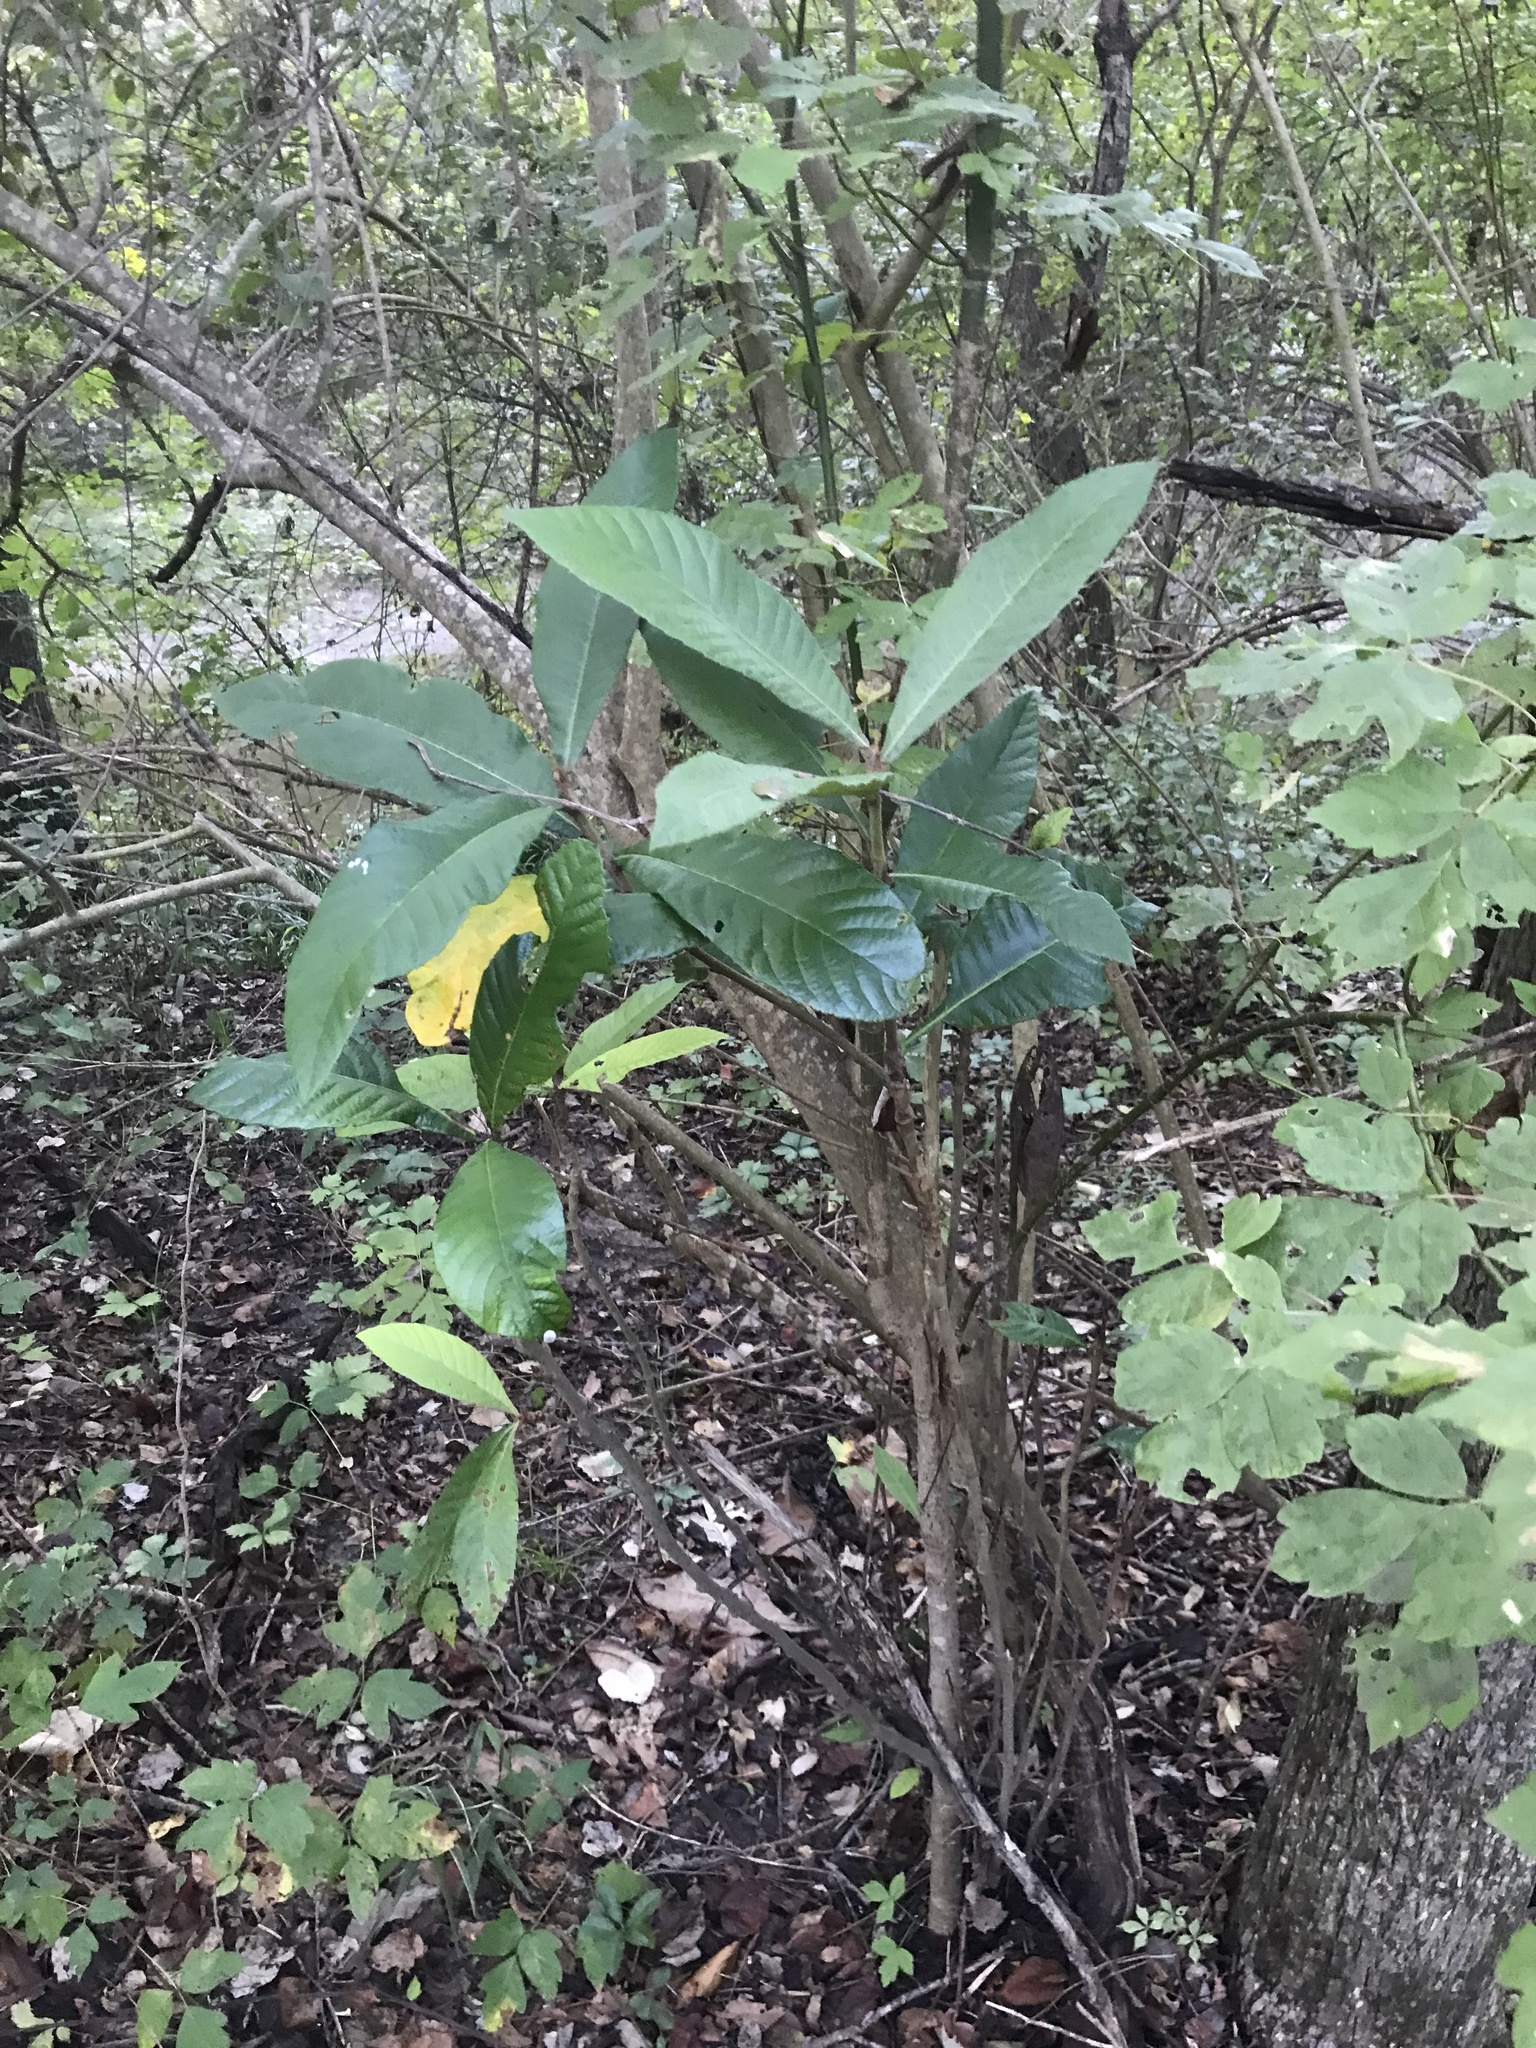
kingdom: Plantae
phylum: Tracheophyta
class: Magnoliopsida
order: Rosales
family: Rosaceae
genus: Rhaphiolepis
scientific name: Rhaphiolepis bibas
